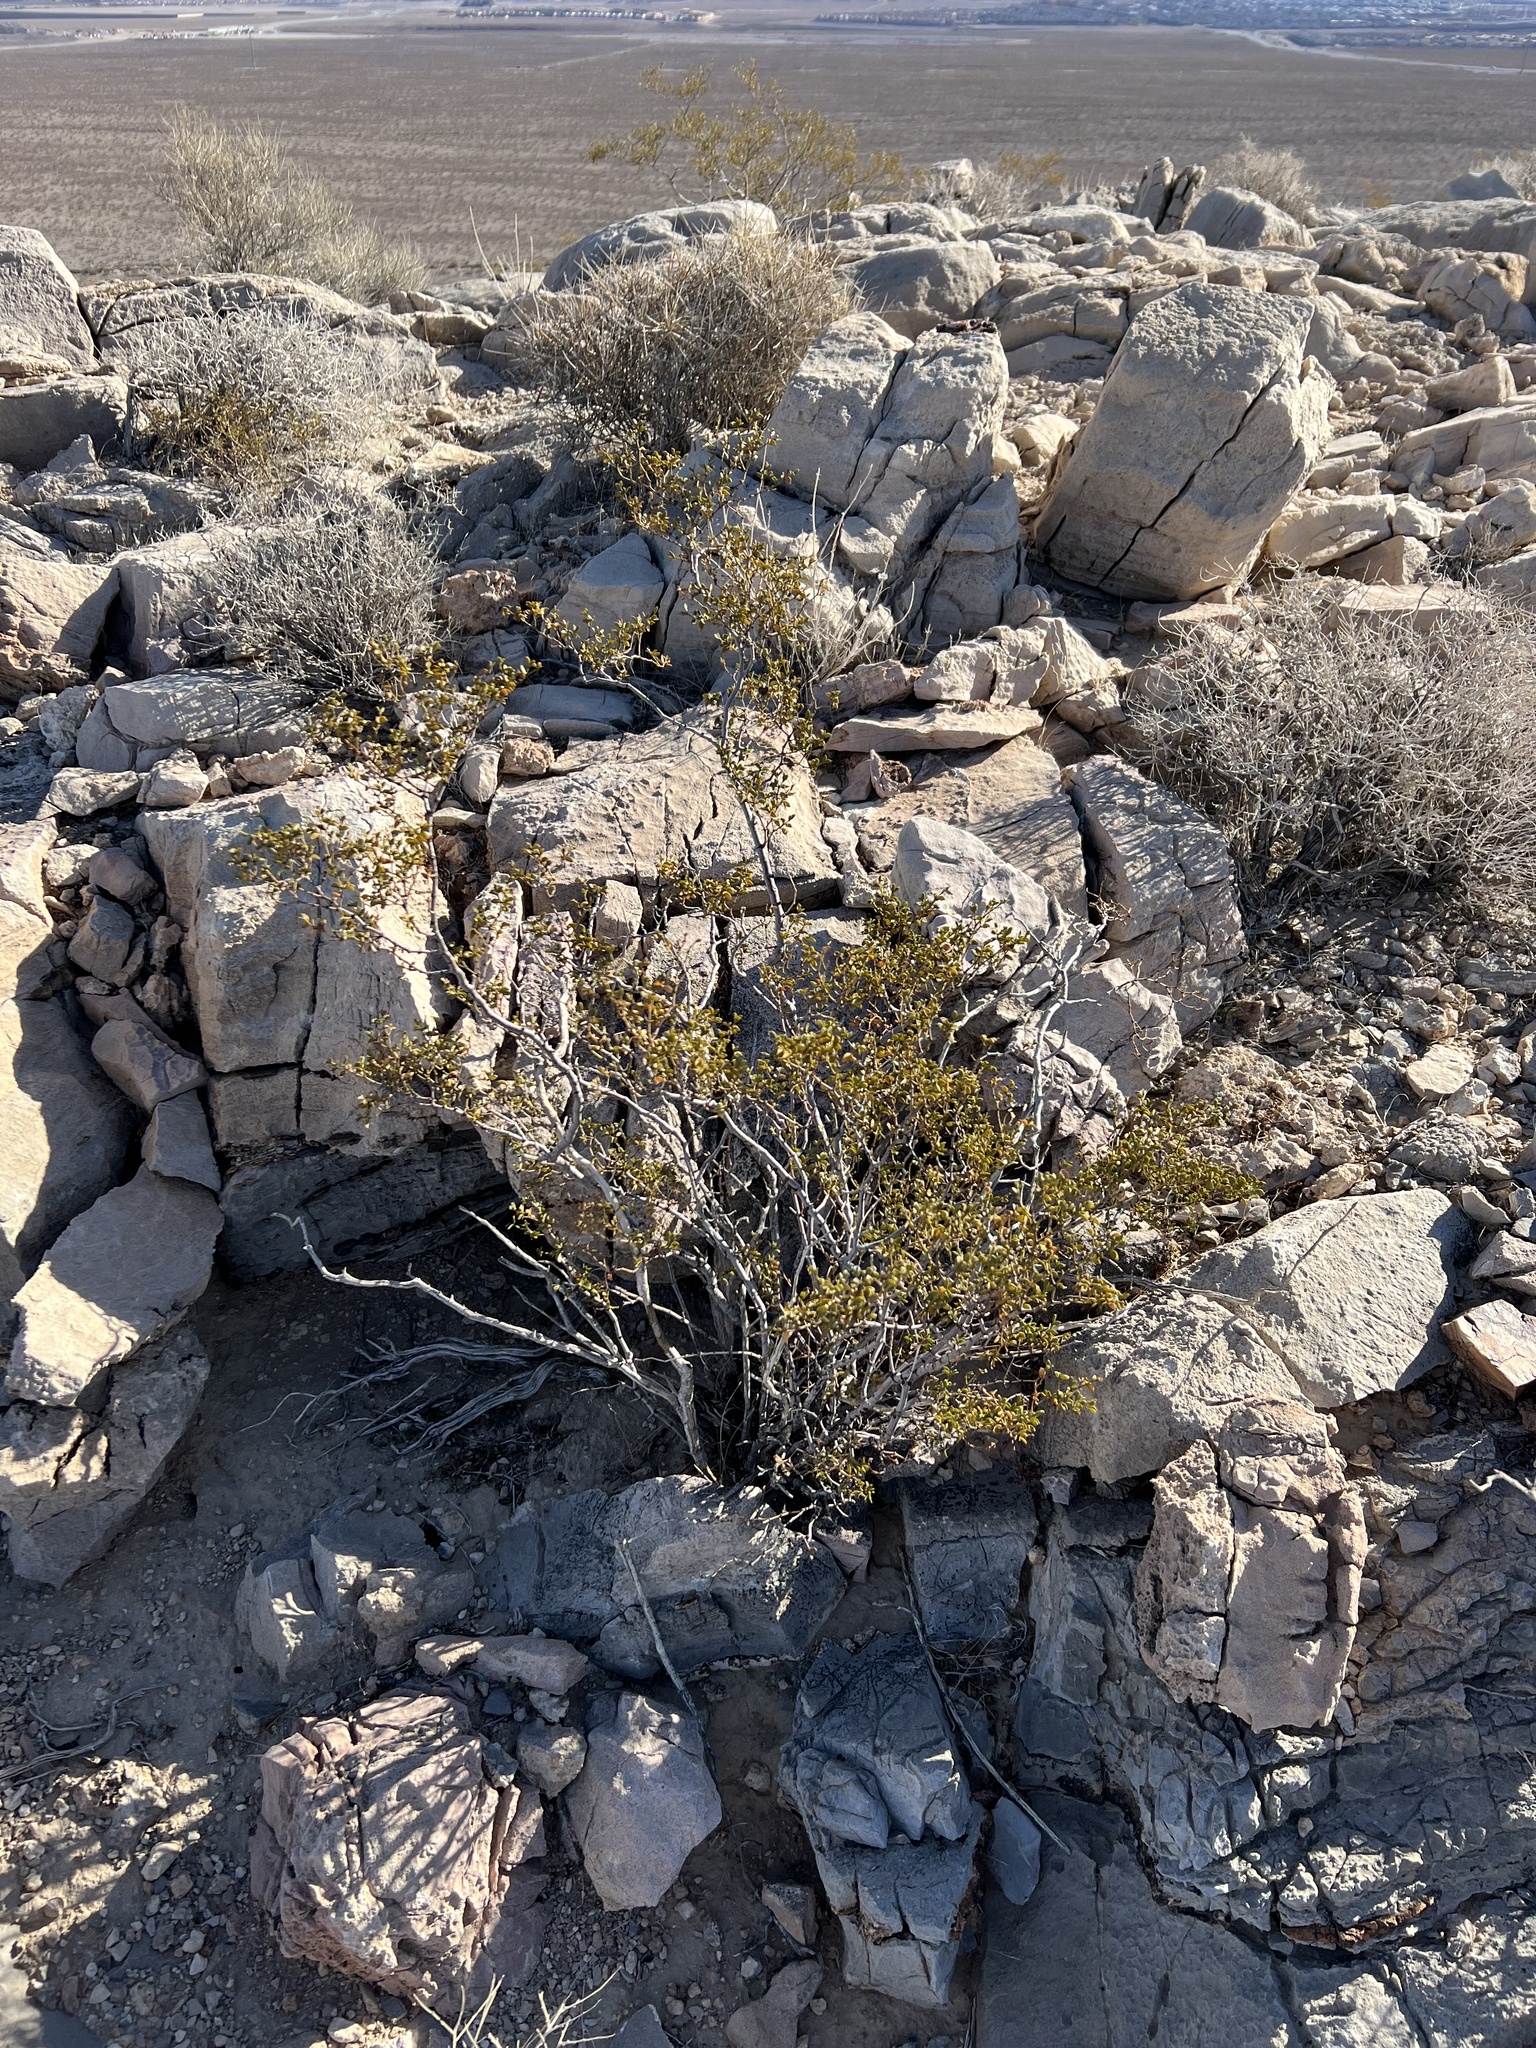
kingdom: Plantae
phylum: Tracheophyta
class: Magnoliopsida
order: Zygophyllales
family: Zygophyllaceae
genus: Larrea
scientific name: Larrea tridentata
